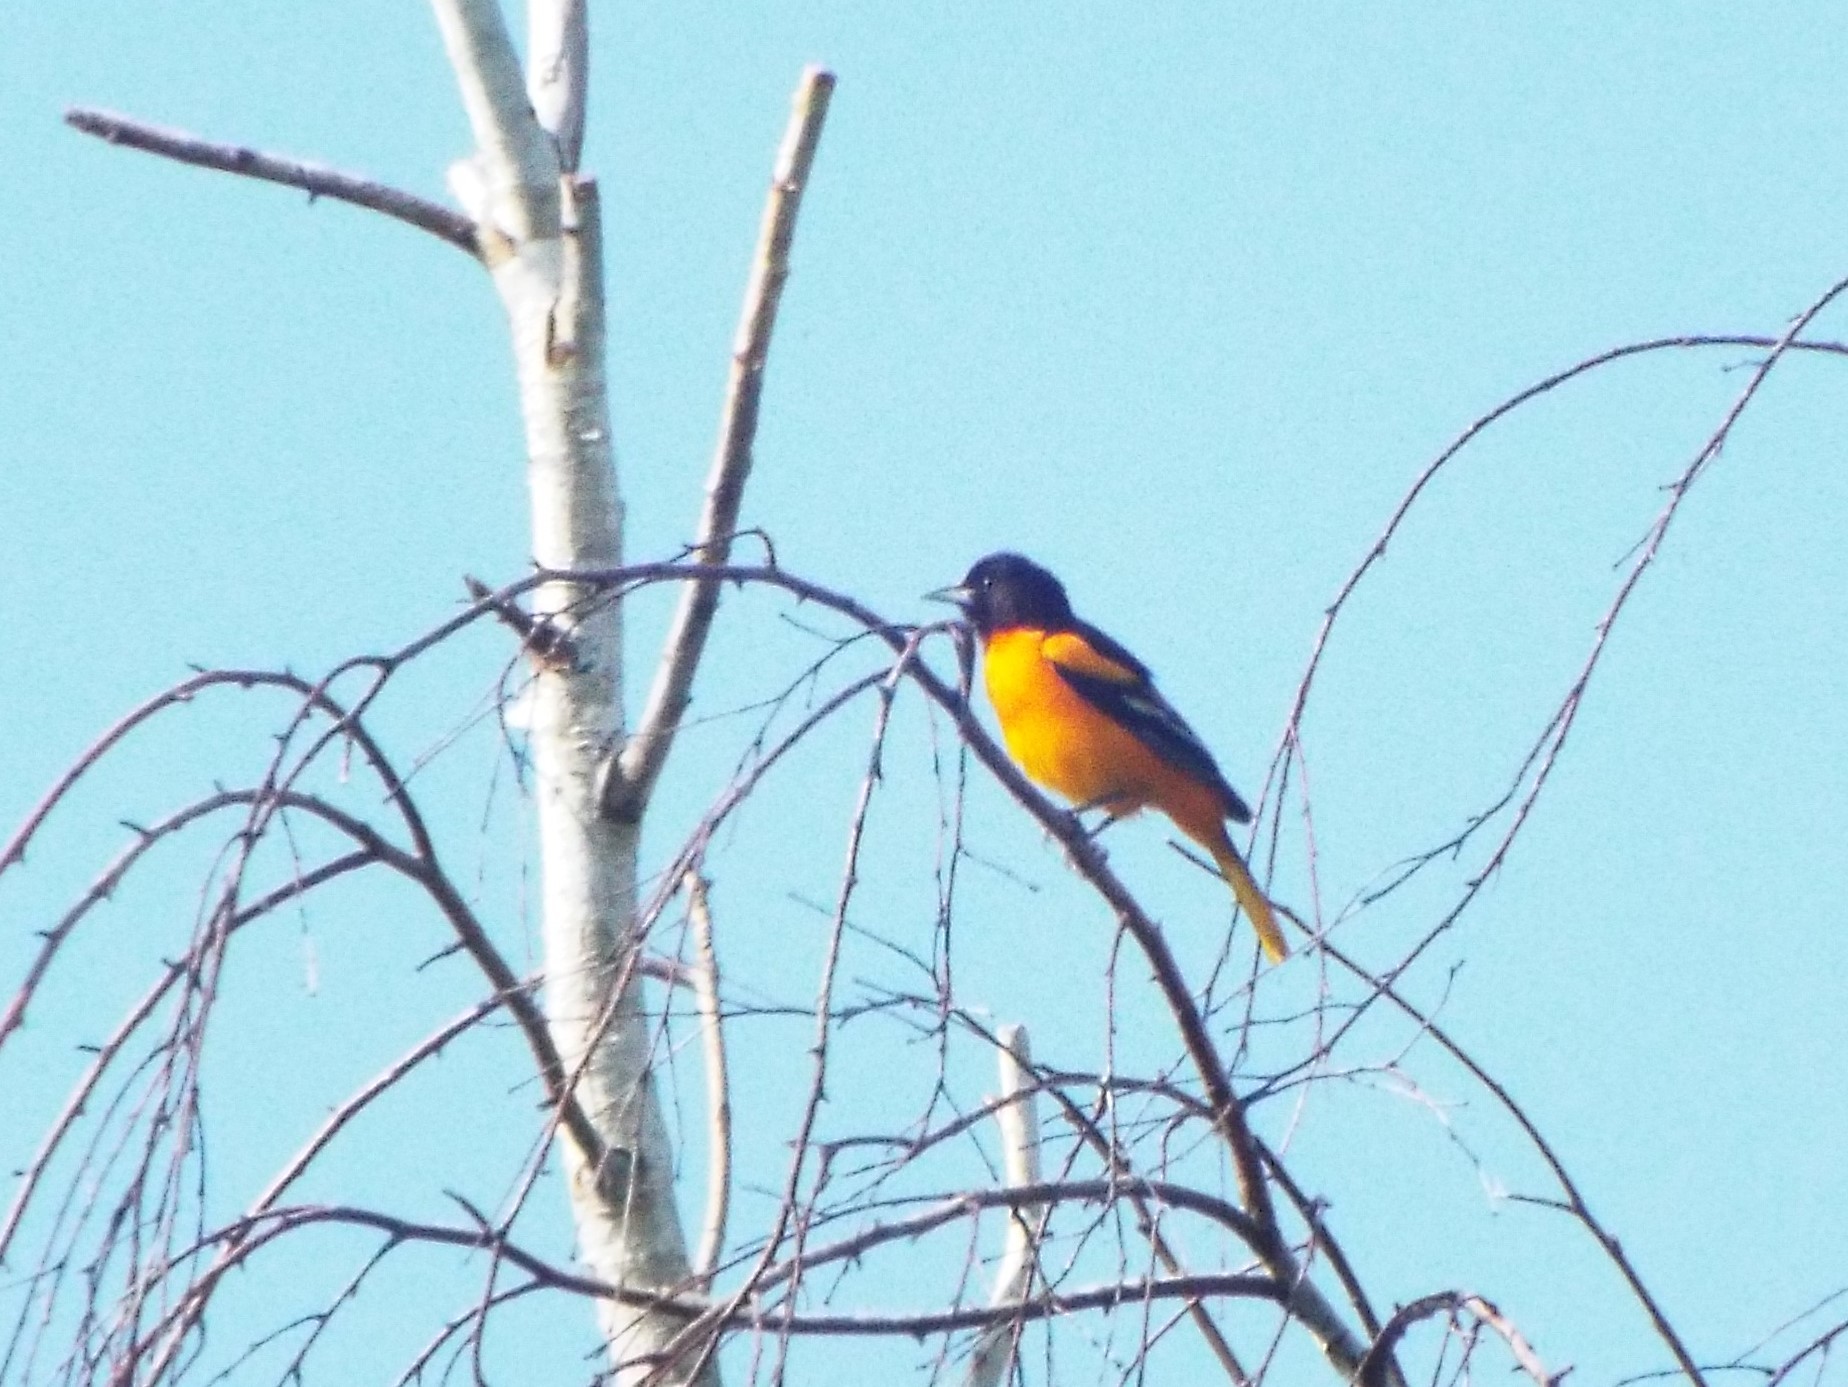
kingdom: Animalia
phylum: Chordata
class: Aves
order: Passeriformes
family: Icteridae
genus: Icterus
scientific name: Icterus galbula
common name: Baltimore oriole
